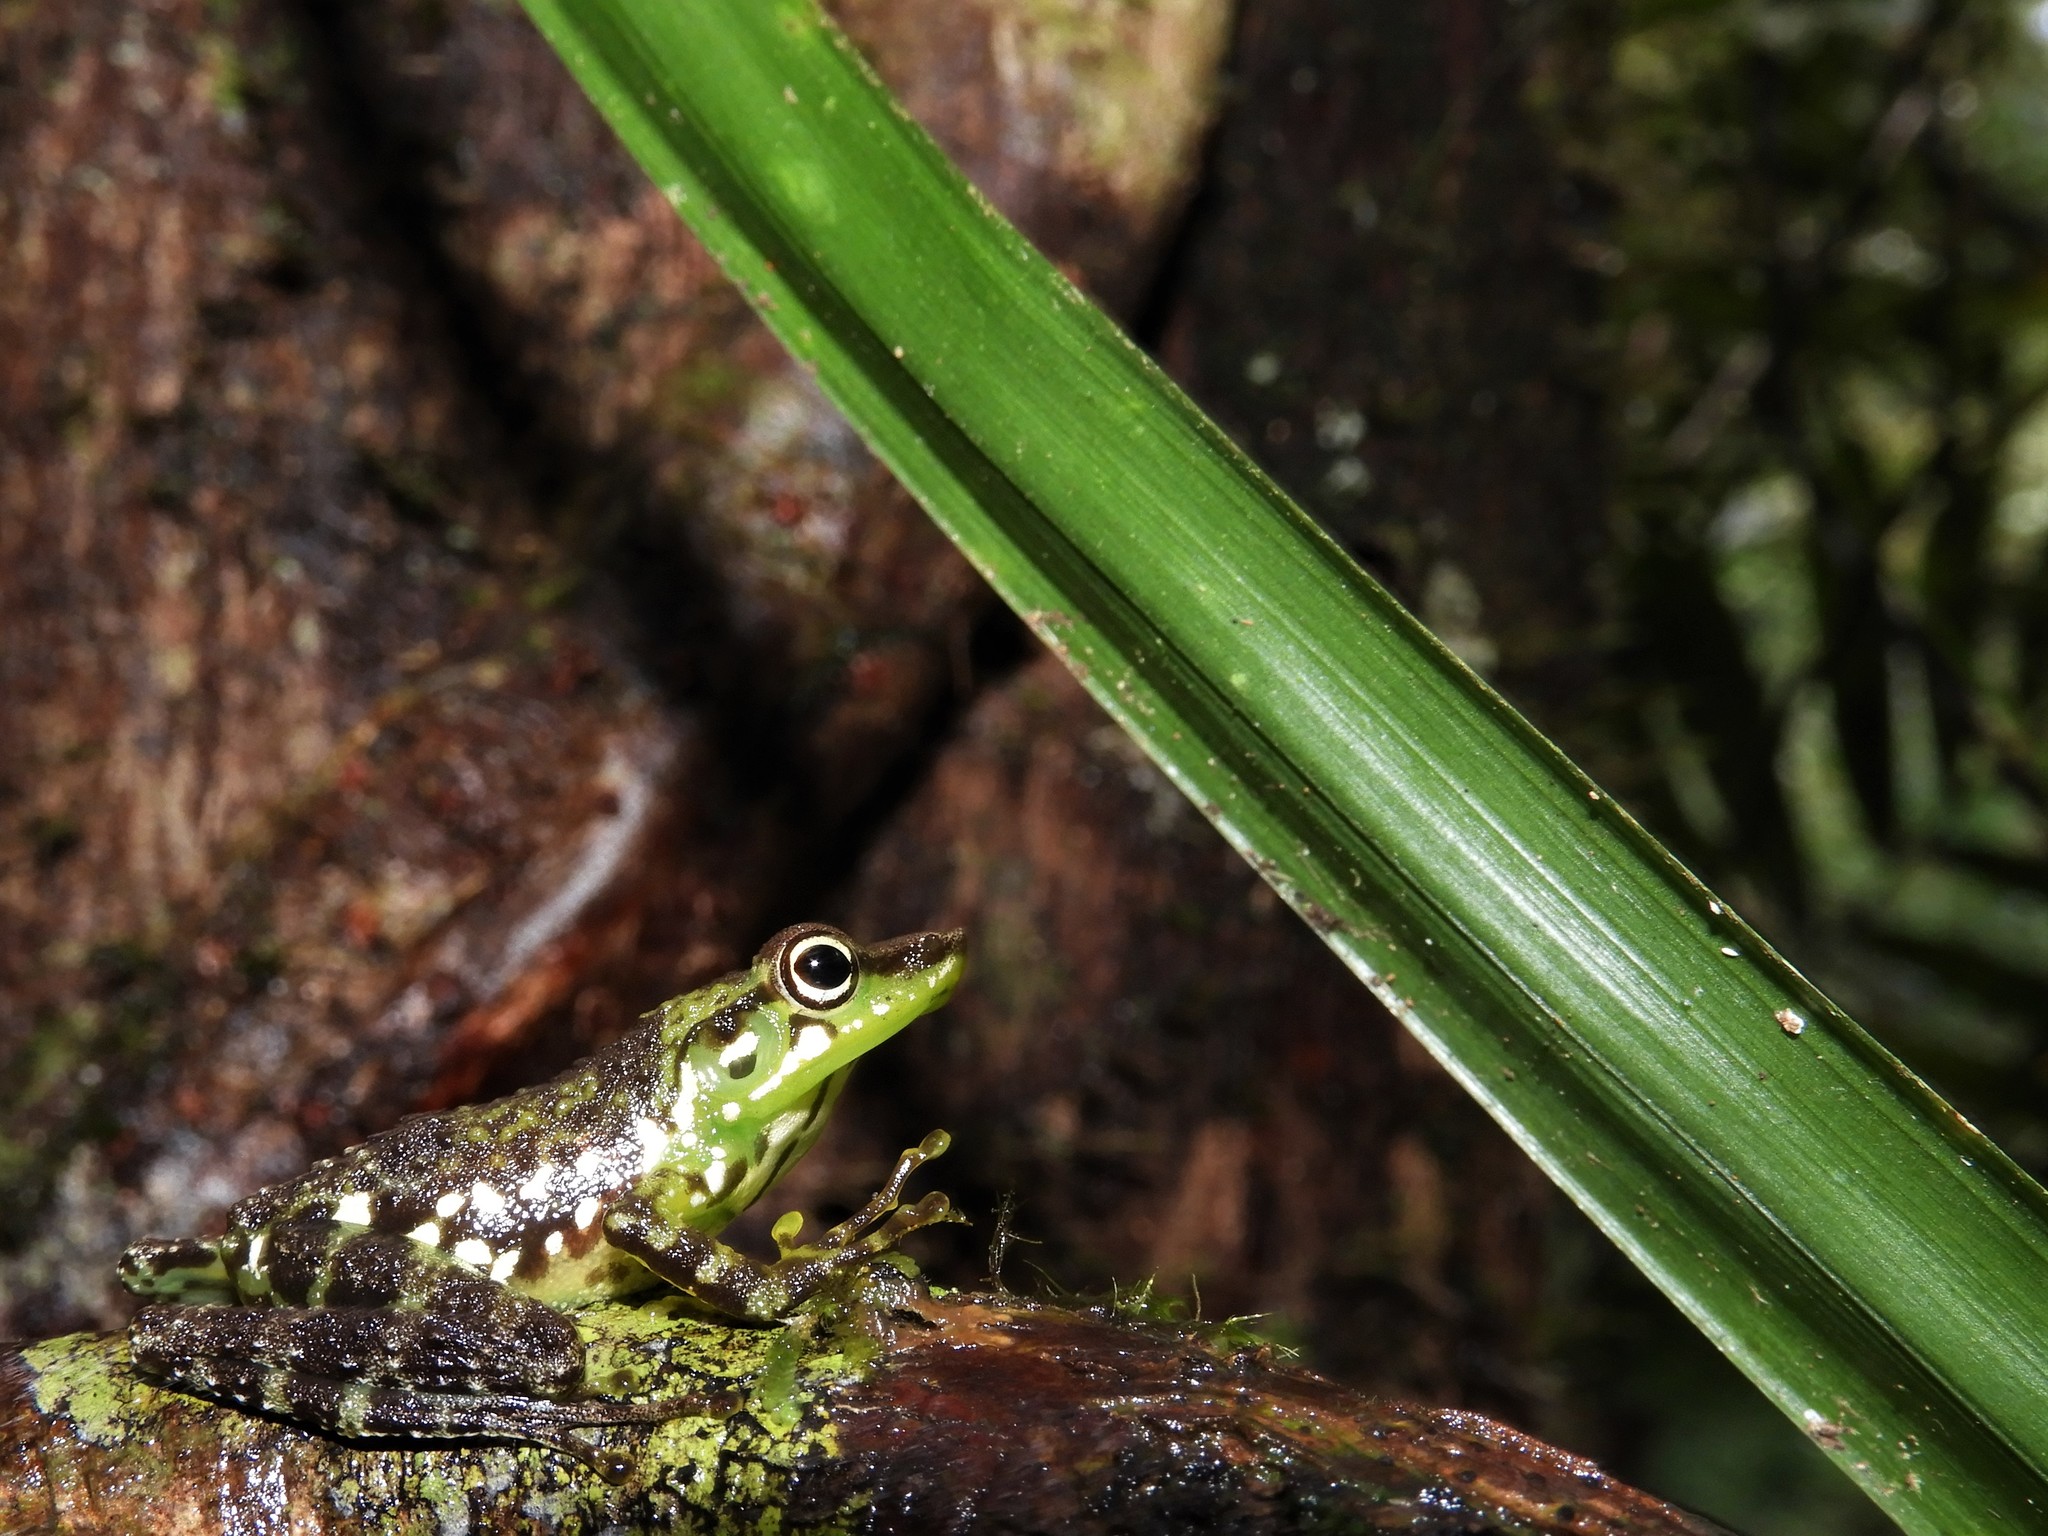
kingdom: Animalia
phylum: Chordata
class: Amphibia
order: Anura
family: Mantellidae
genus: Mantidactylus
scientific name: Mantidactylus argenteus
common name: Folohy madagascar frog
